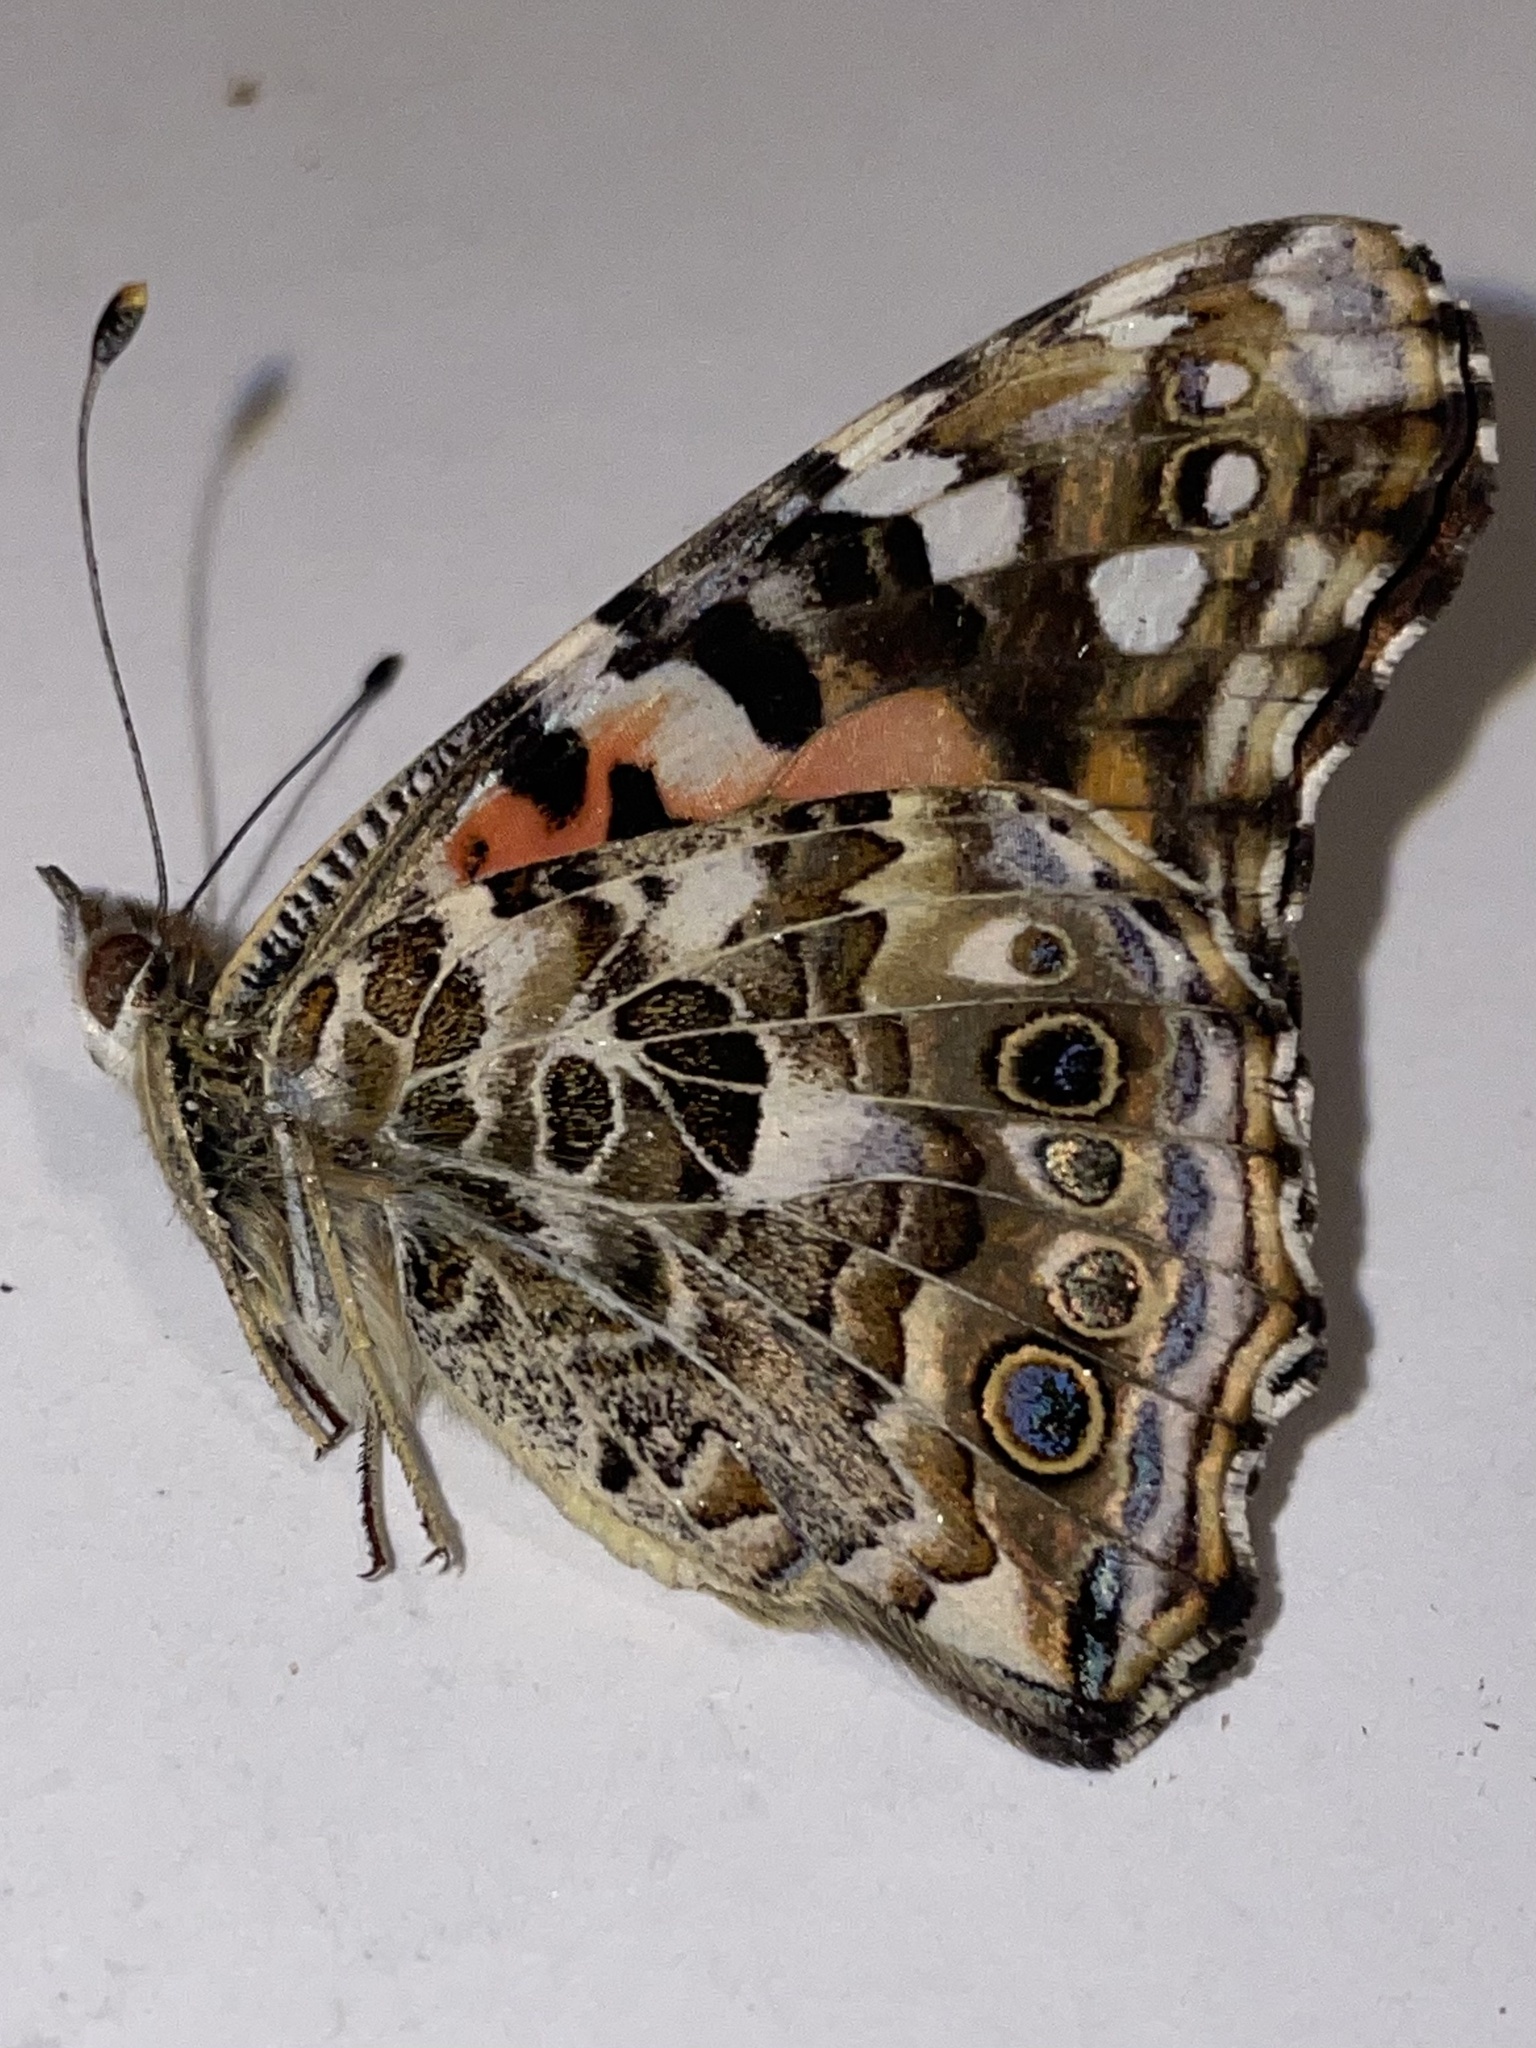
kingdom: Animalia
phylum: Arthropoda
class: Insecta
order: Lepidoptera
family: Nymphalidae
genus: Vanessa
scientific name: Vanessa cardui
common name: Painted lady
